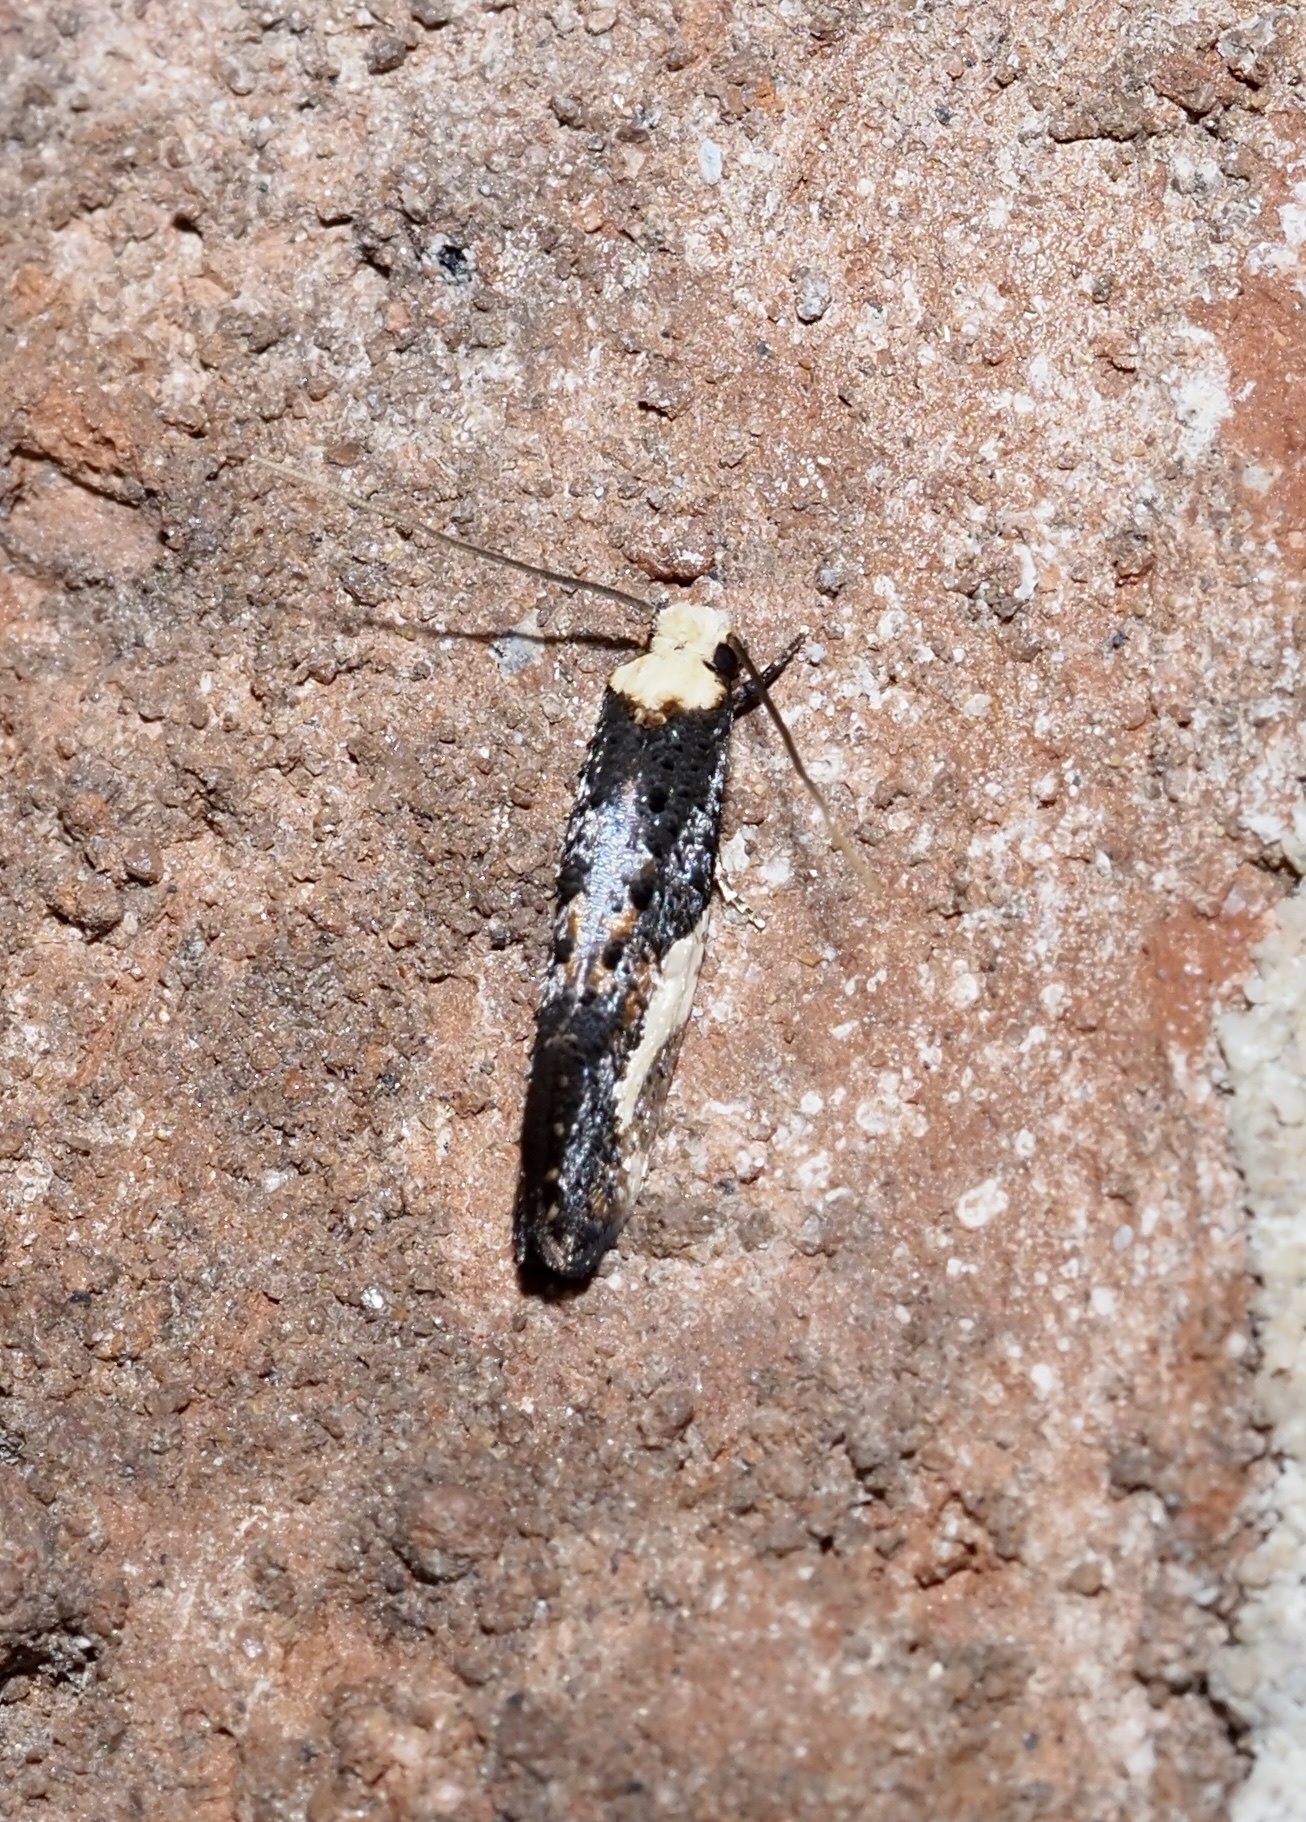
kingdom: Animalia
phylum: Arthropoda
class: Insecta
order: Lepidoptera
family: Tineidae
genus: Monopis
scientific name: Monopis longella
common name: Pavlovski's monopis moth
